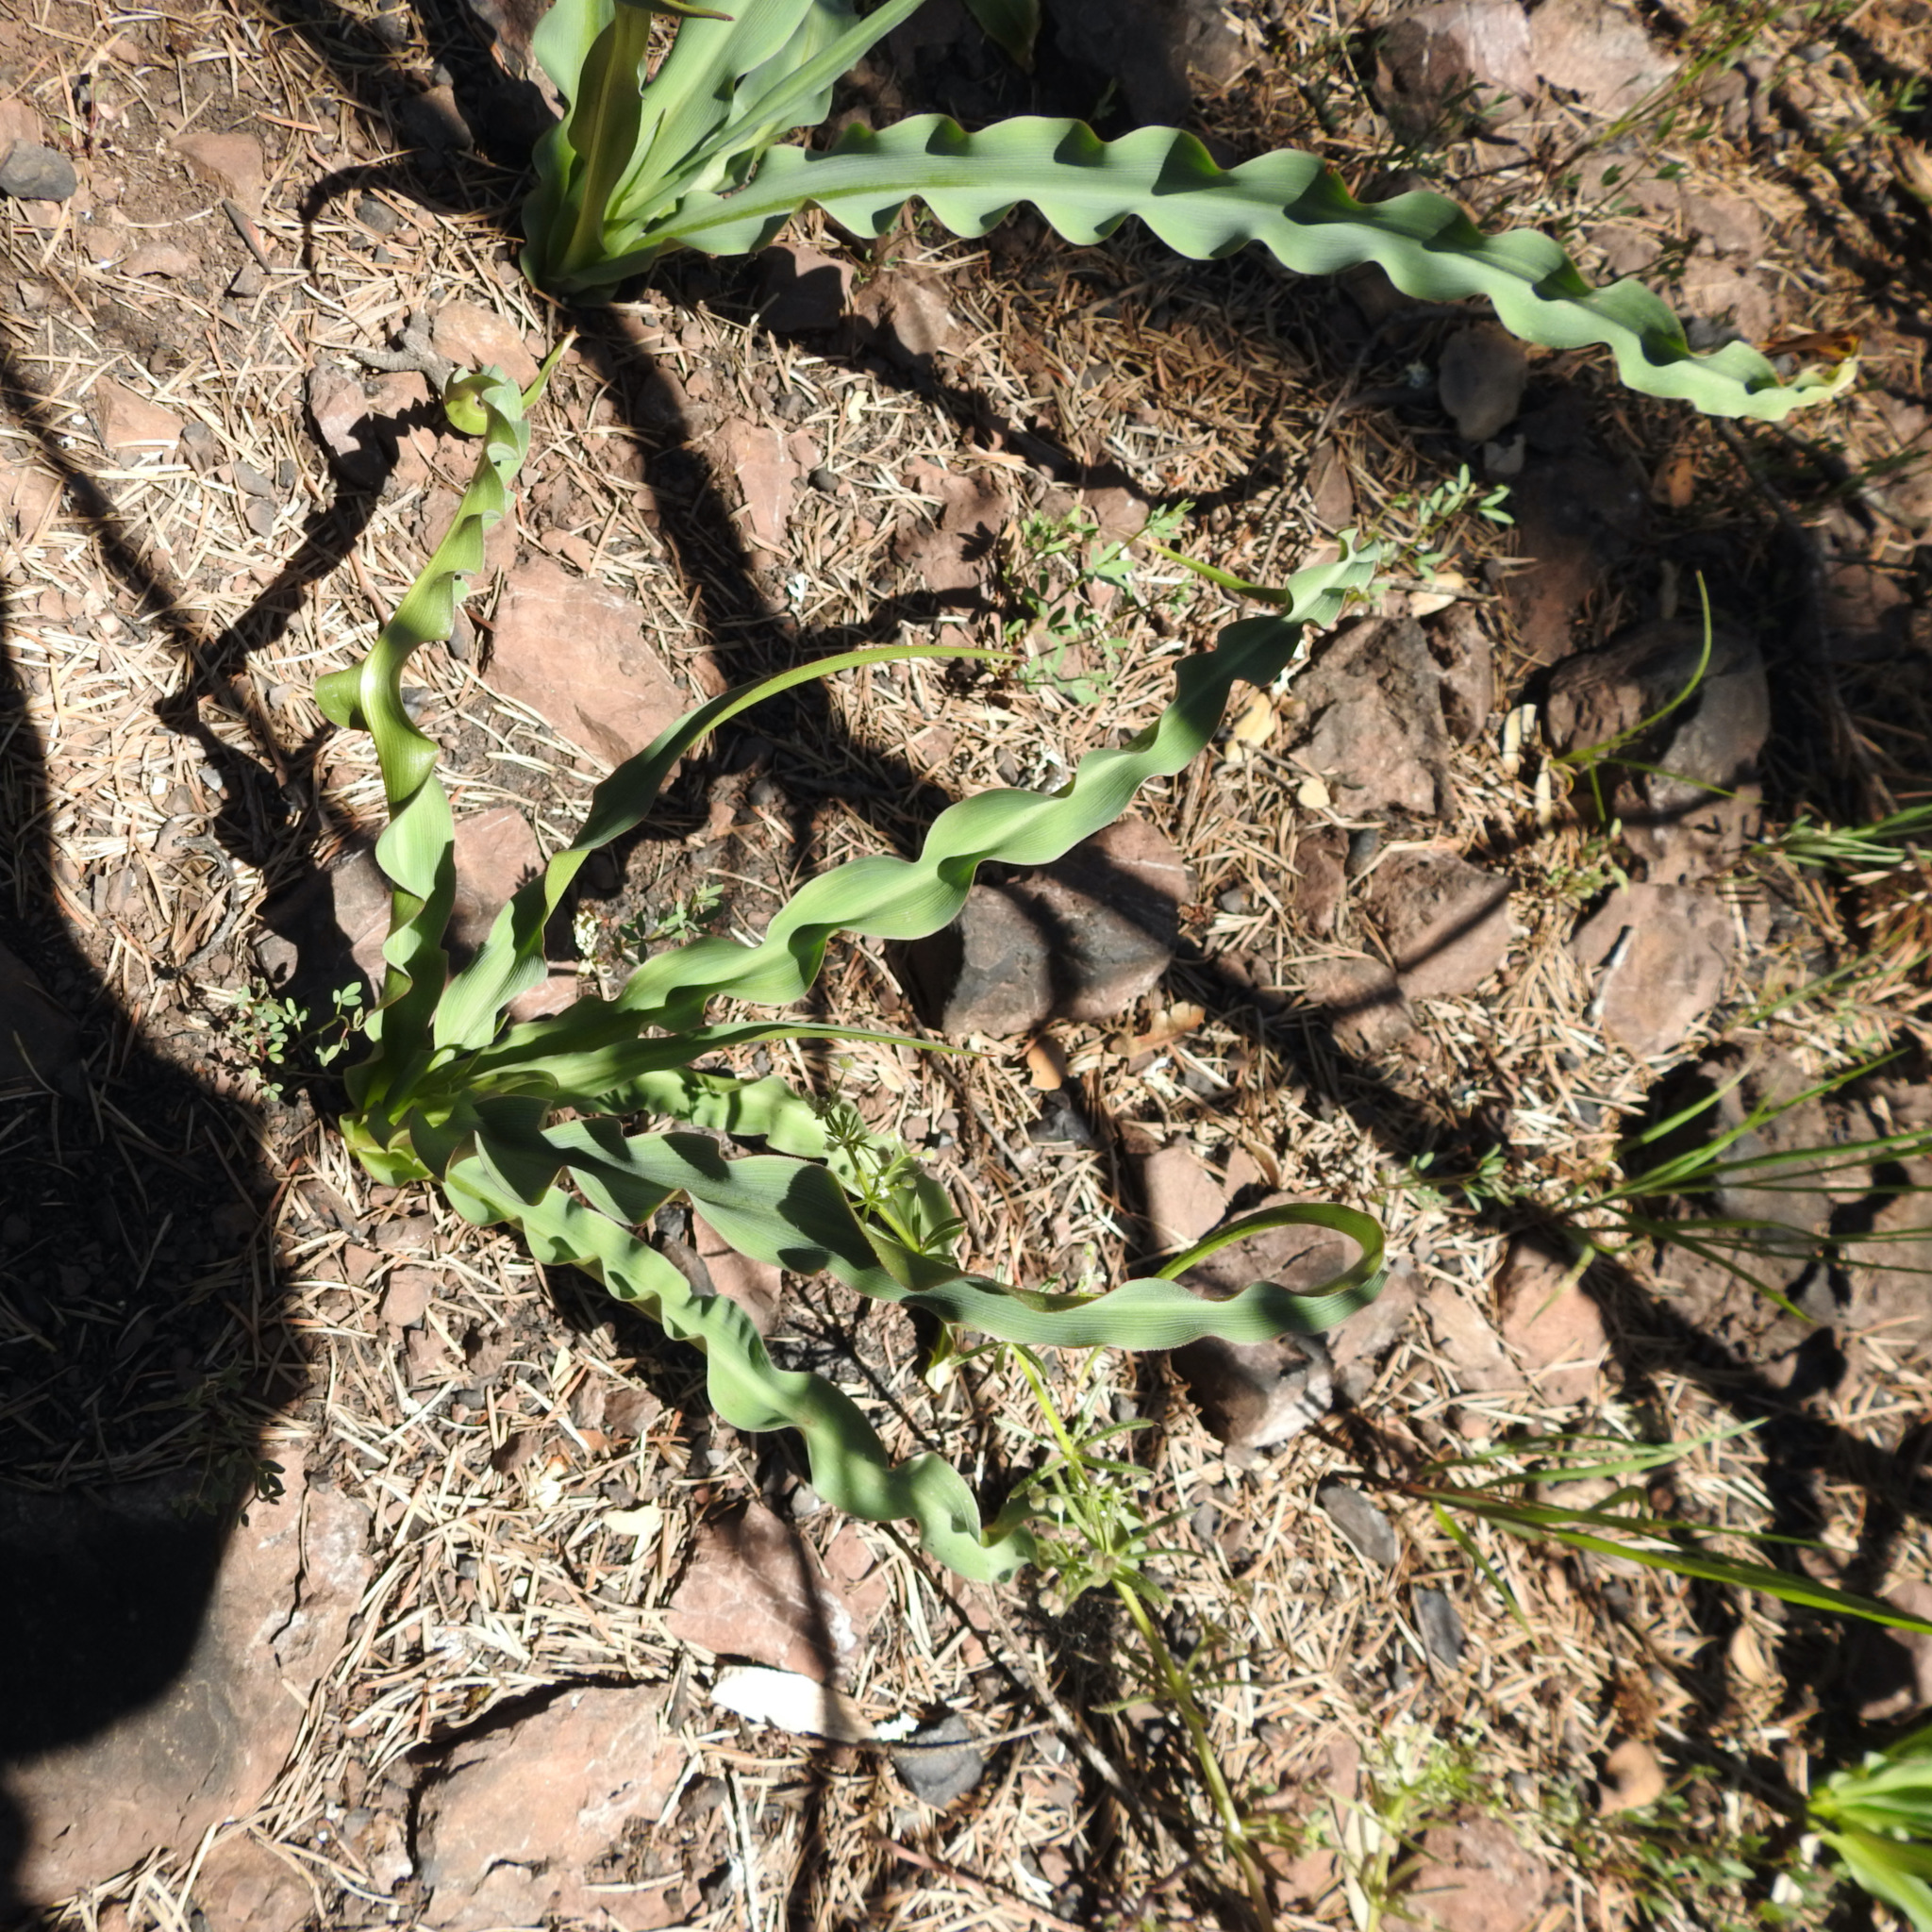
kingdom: Plantae
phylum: Tracheophyta
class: Liliopsida
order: Asparagales
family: Asparagaceae
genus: Chlorogalum
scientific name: Chlorogalum pomeridianum
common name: Amole
